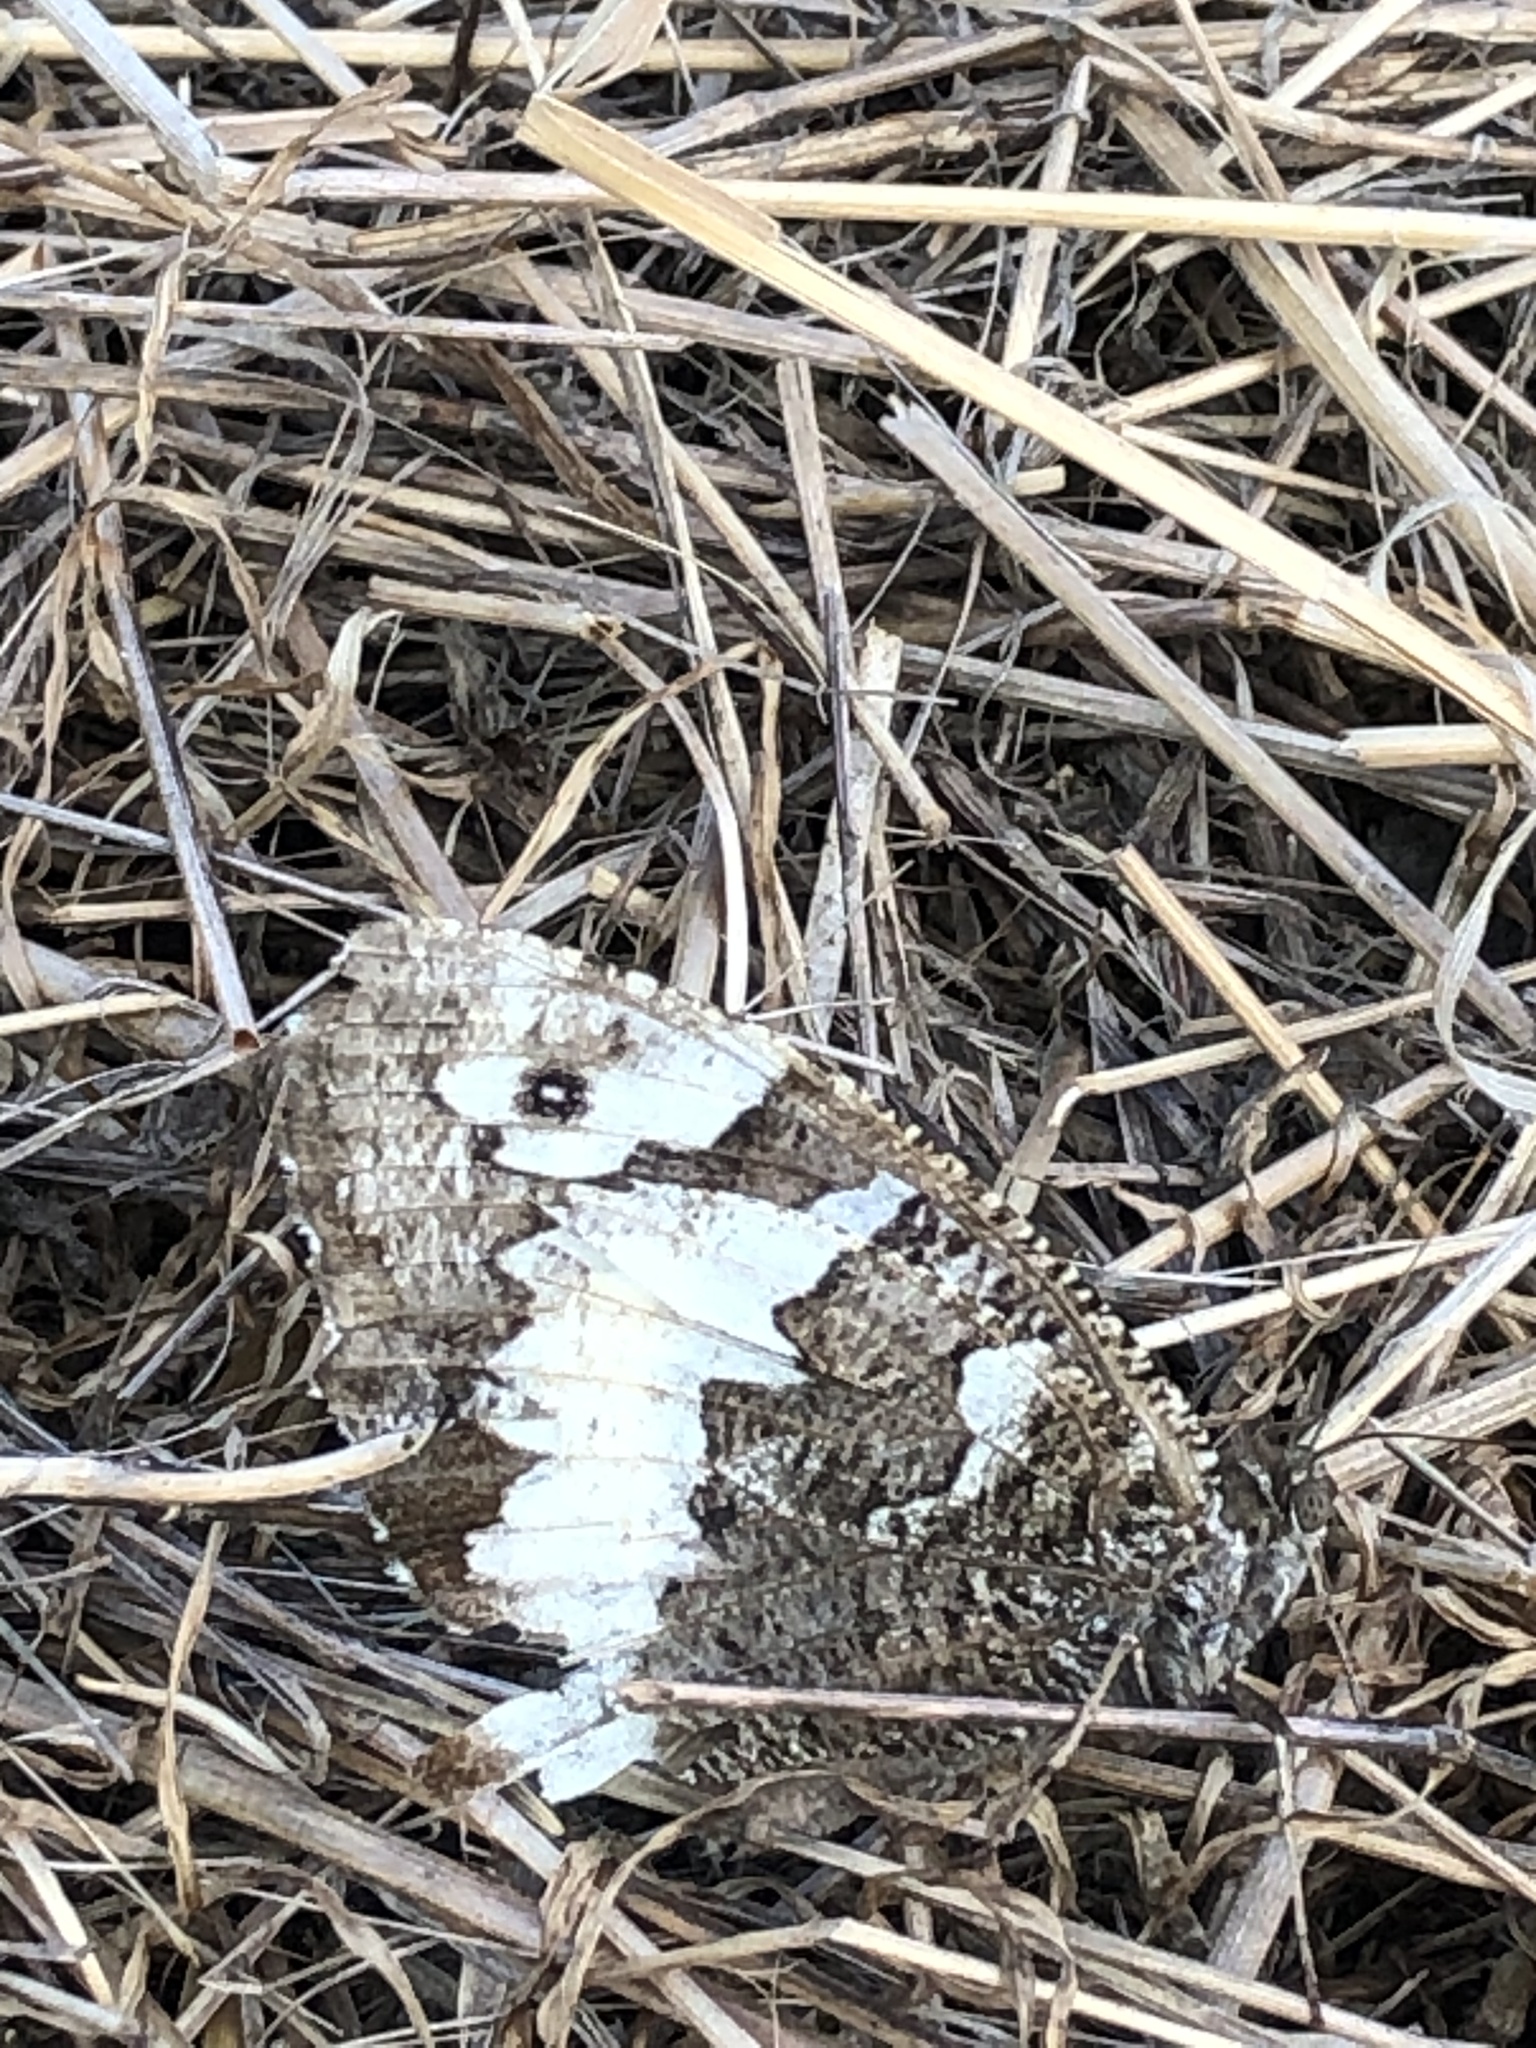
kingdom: Animalia
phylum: Arthropoda
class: Insecta
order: Lepidoptera
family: Lycaenidae
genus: Loweia
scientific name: Loweia tityrus
